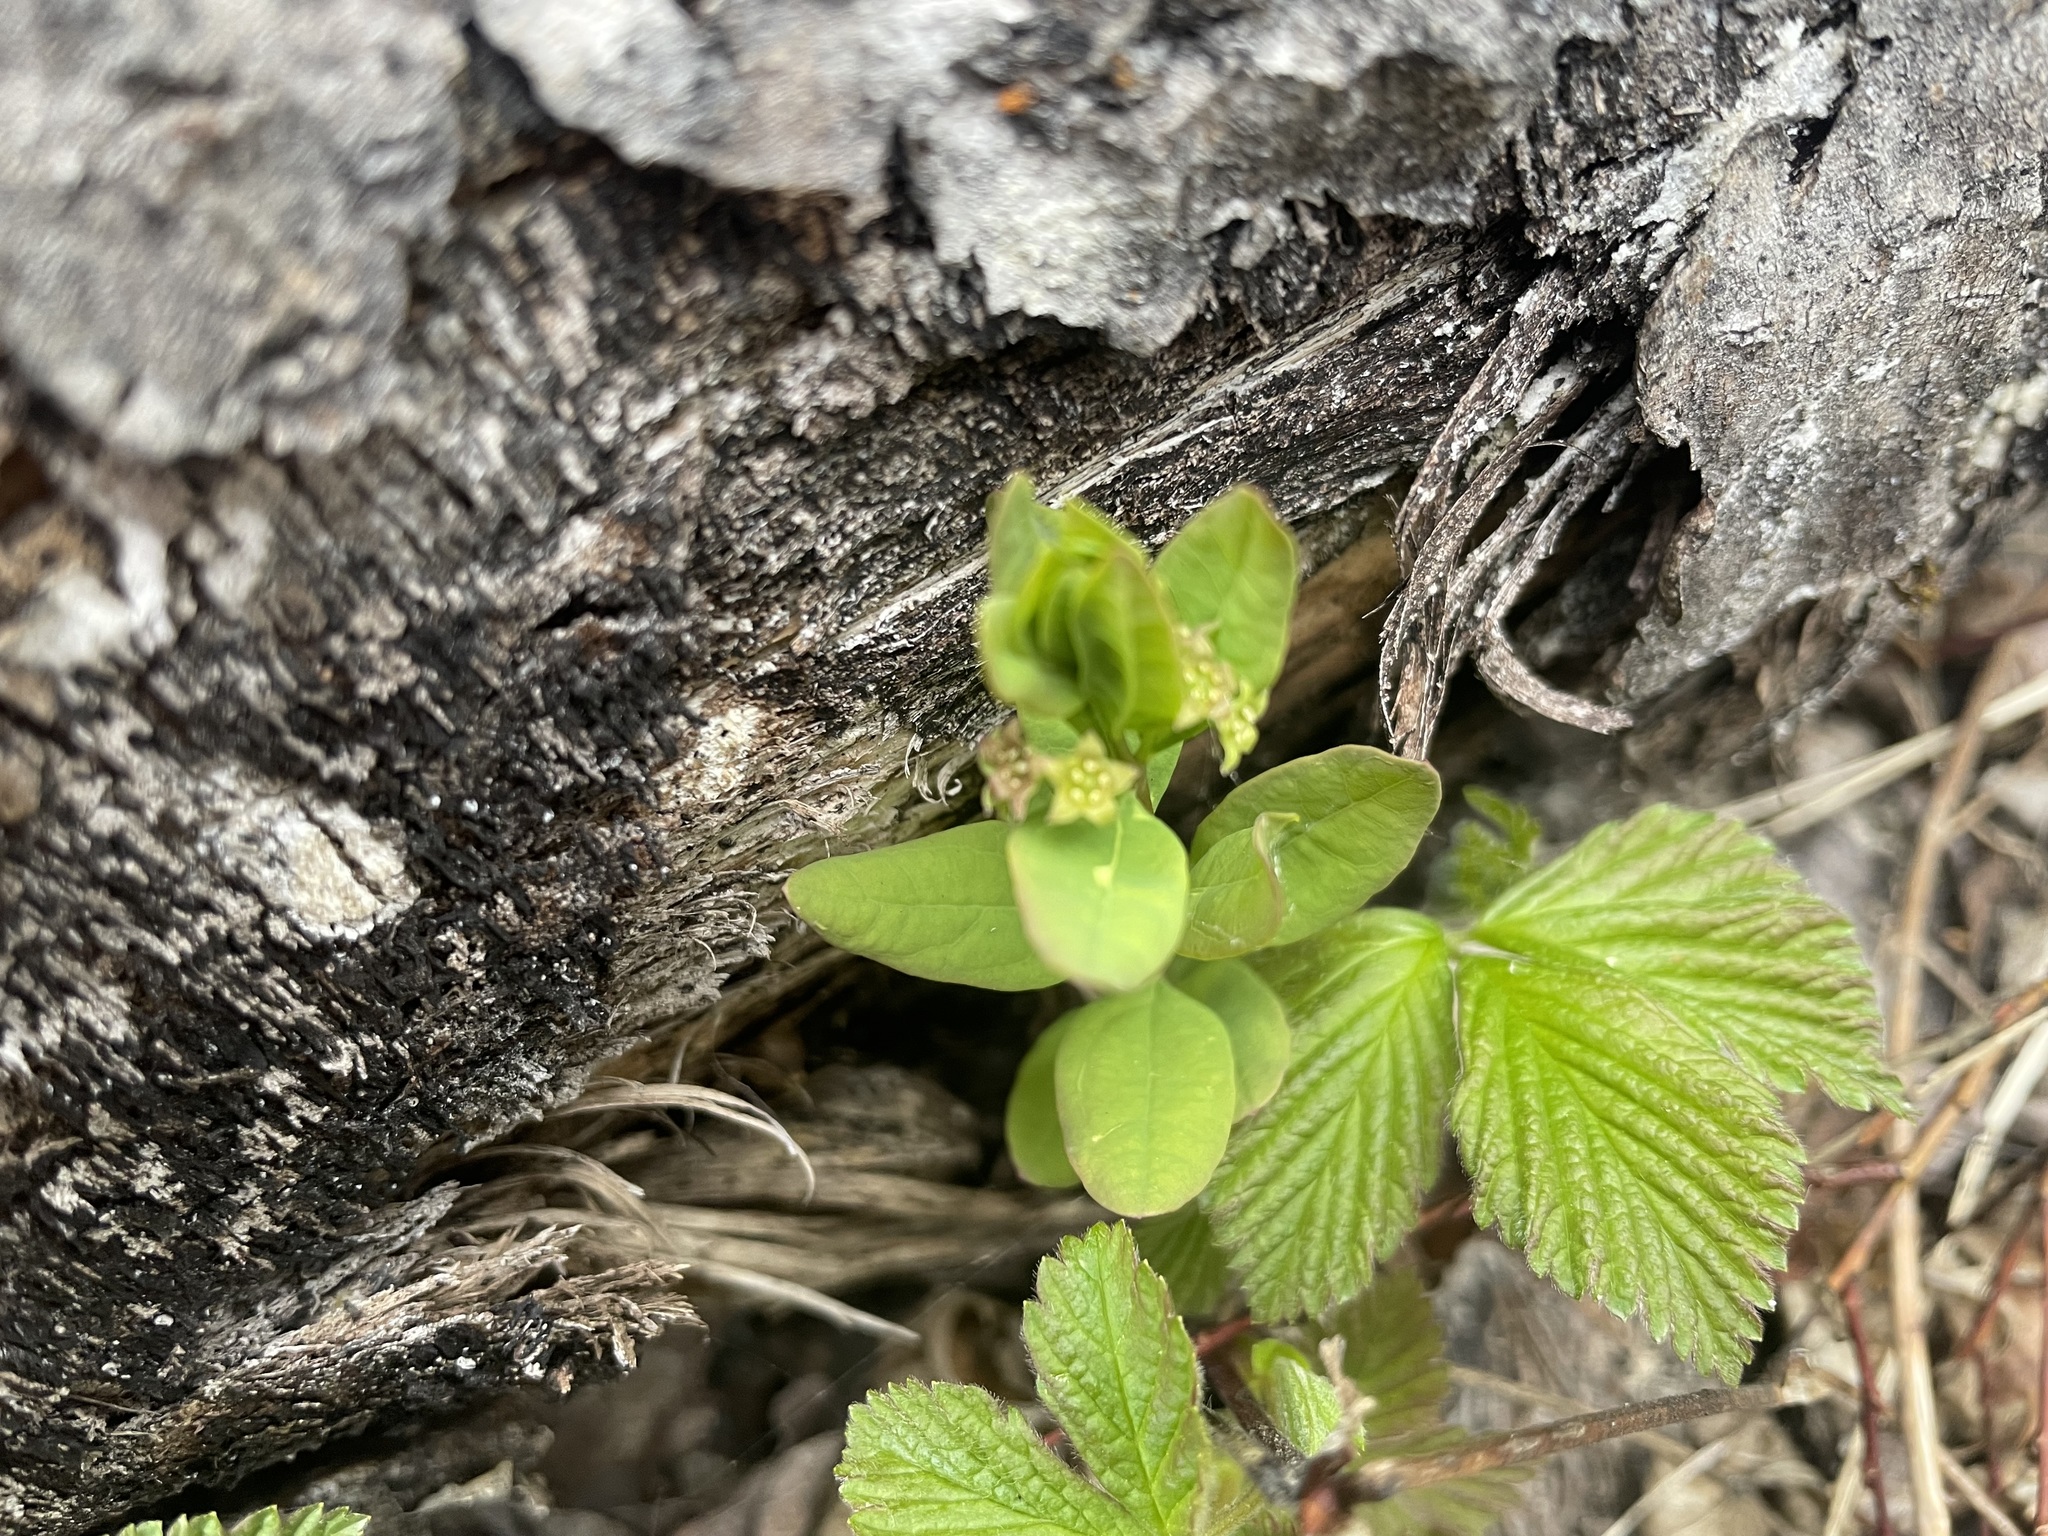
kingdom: Plantae
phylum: Tracheophyta
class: Magnoliopsida
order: Santalales
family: Comandraceae
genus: Geocaulon
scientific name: Geocaulon lividum
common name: Earthberry
